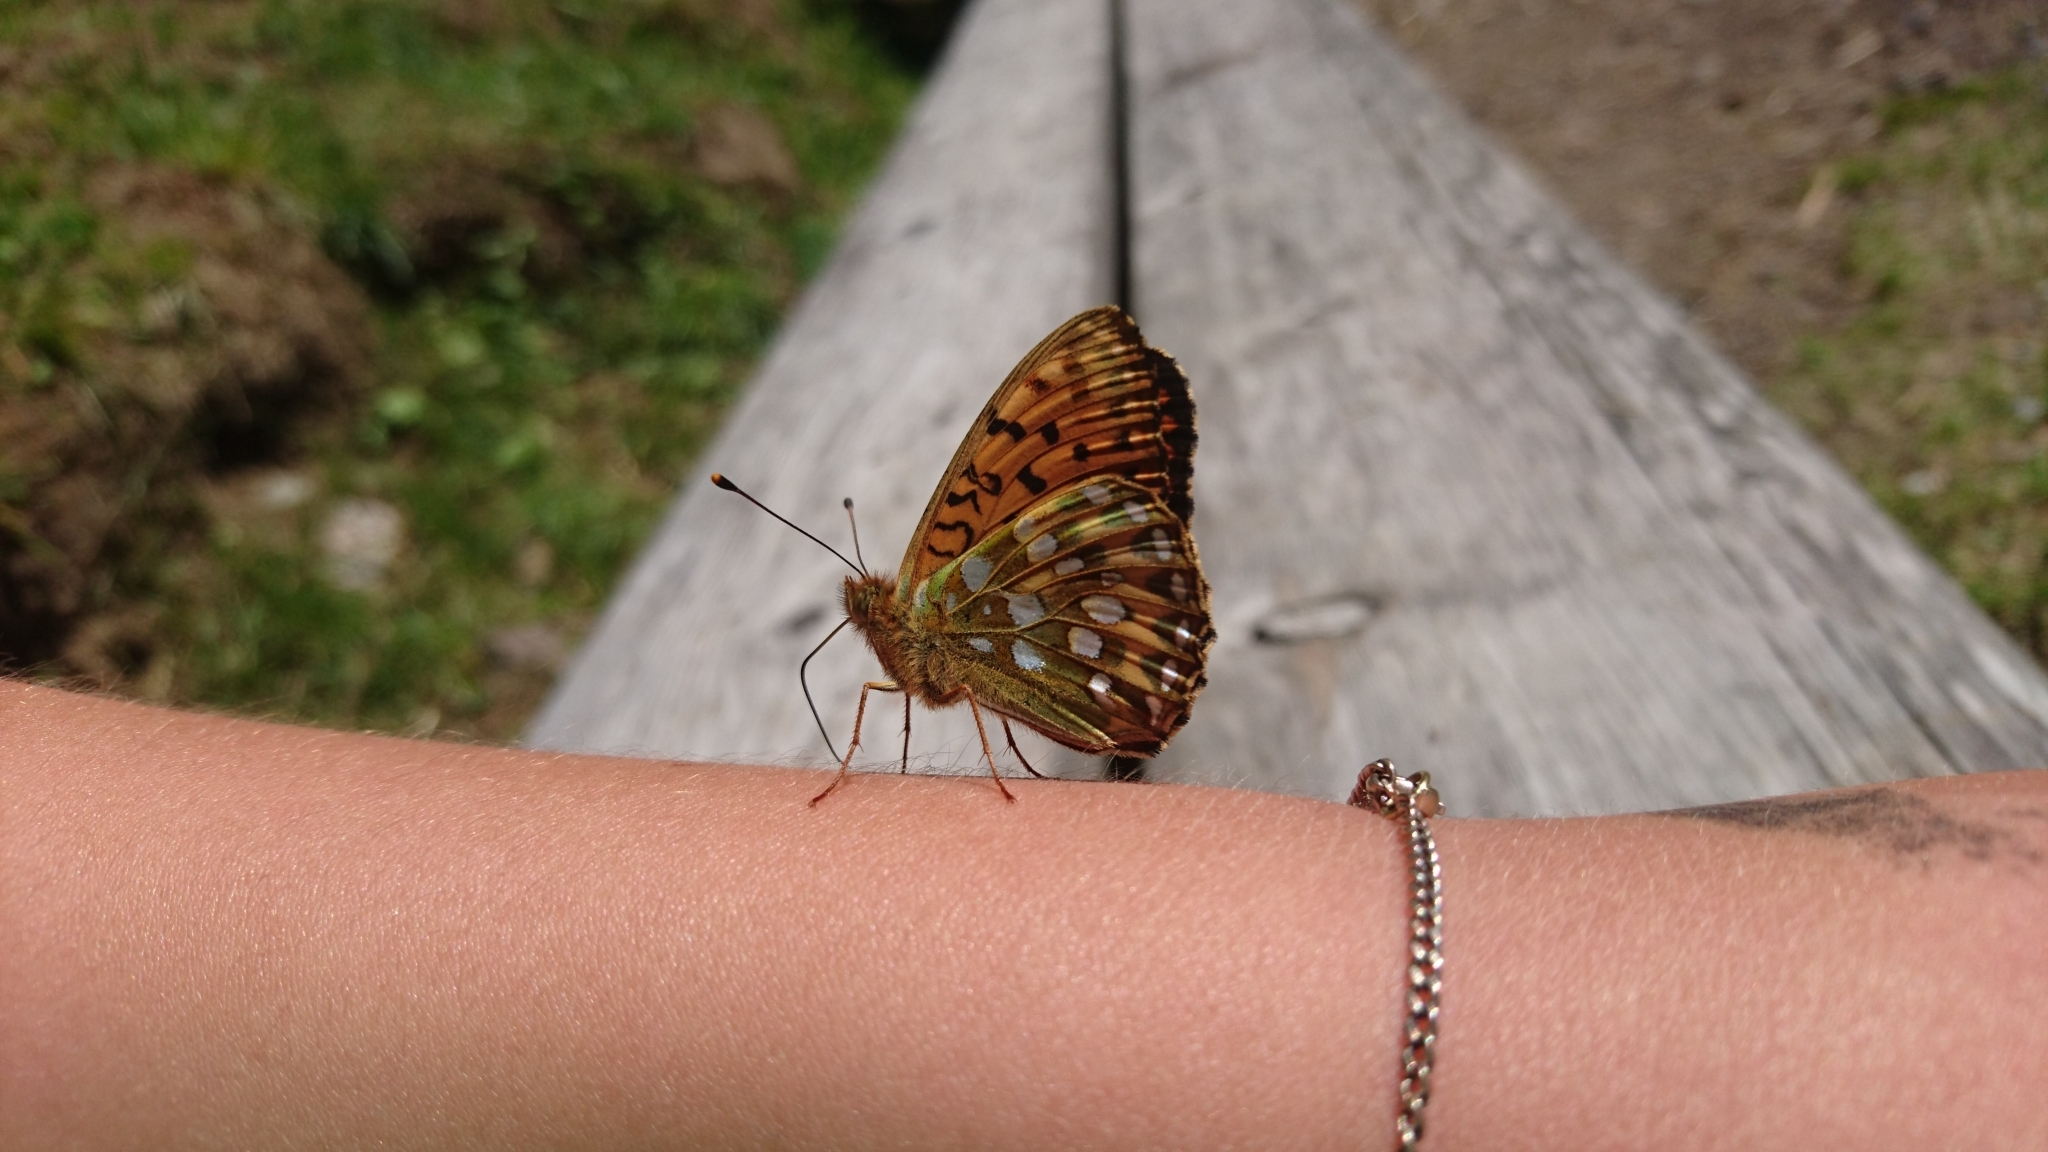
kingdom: Animalia
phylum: Arthropoda
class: Insecta
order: Lepidoptera
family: Nymphalidae
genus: Speyeria
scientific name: Speyeria aglaja
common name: Dark green fritillary
